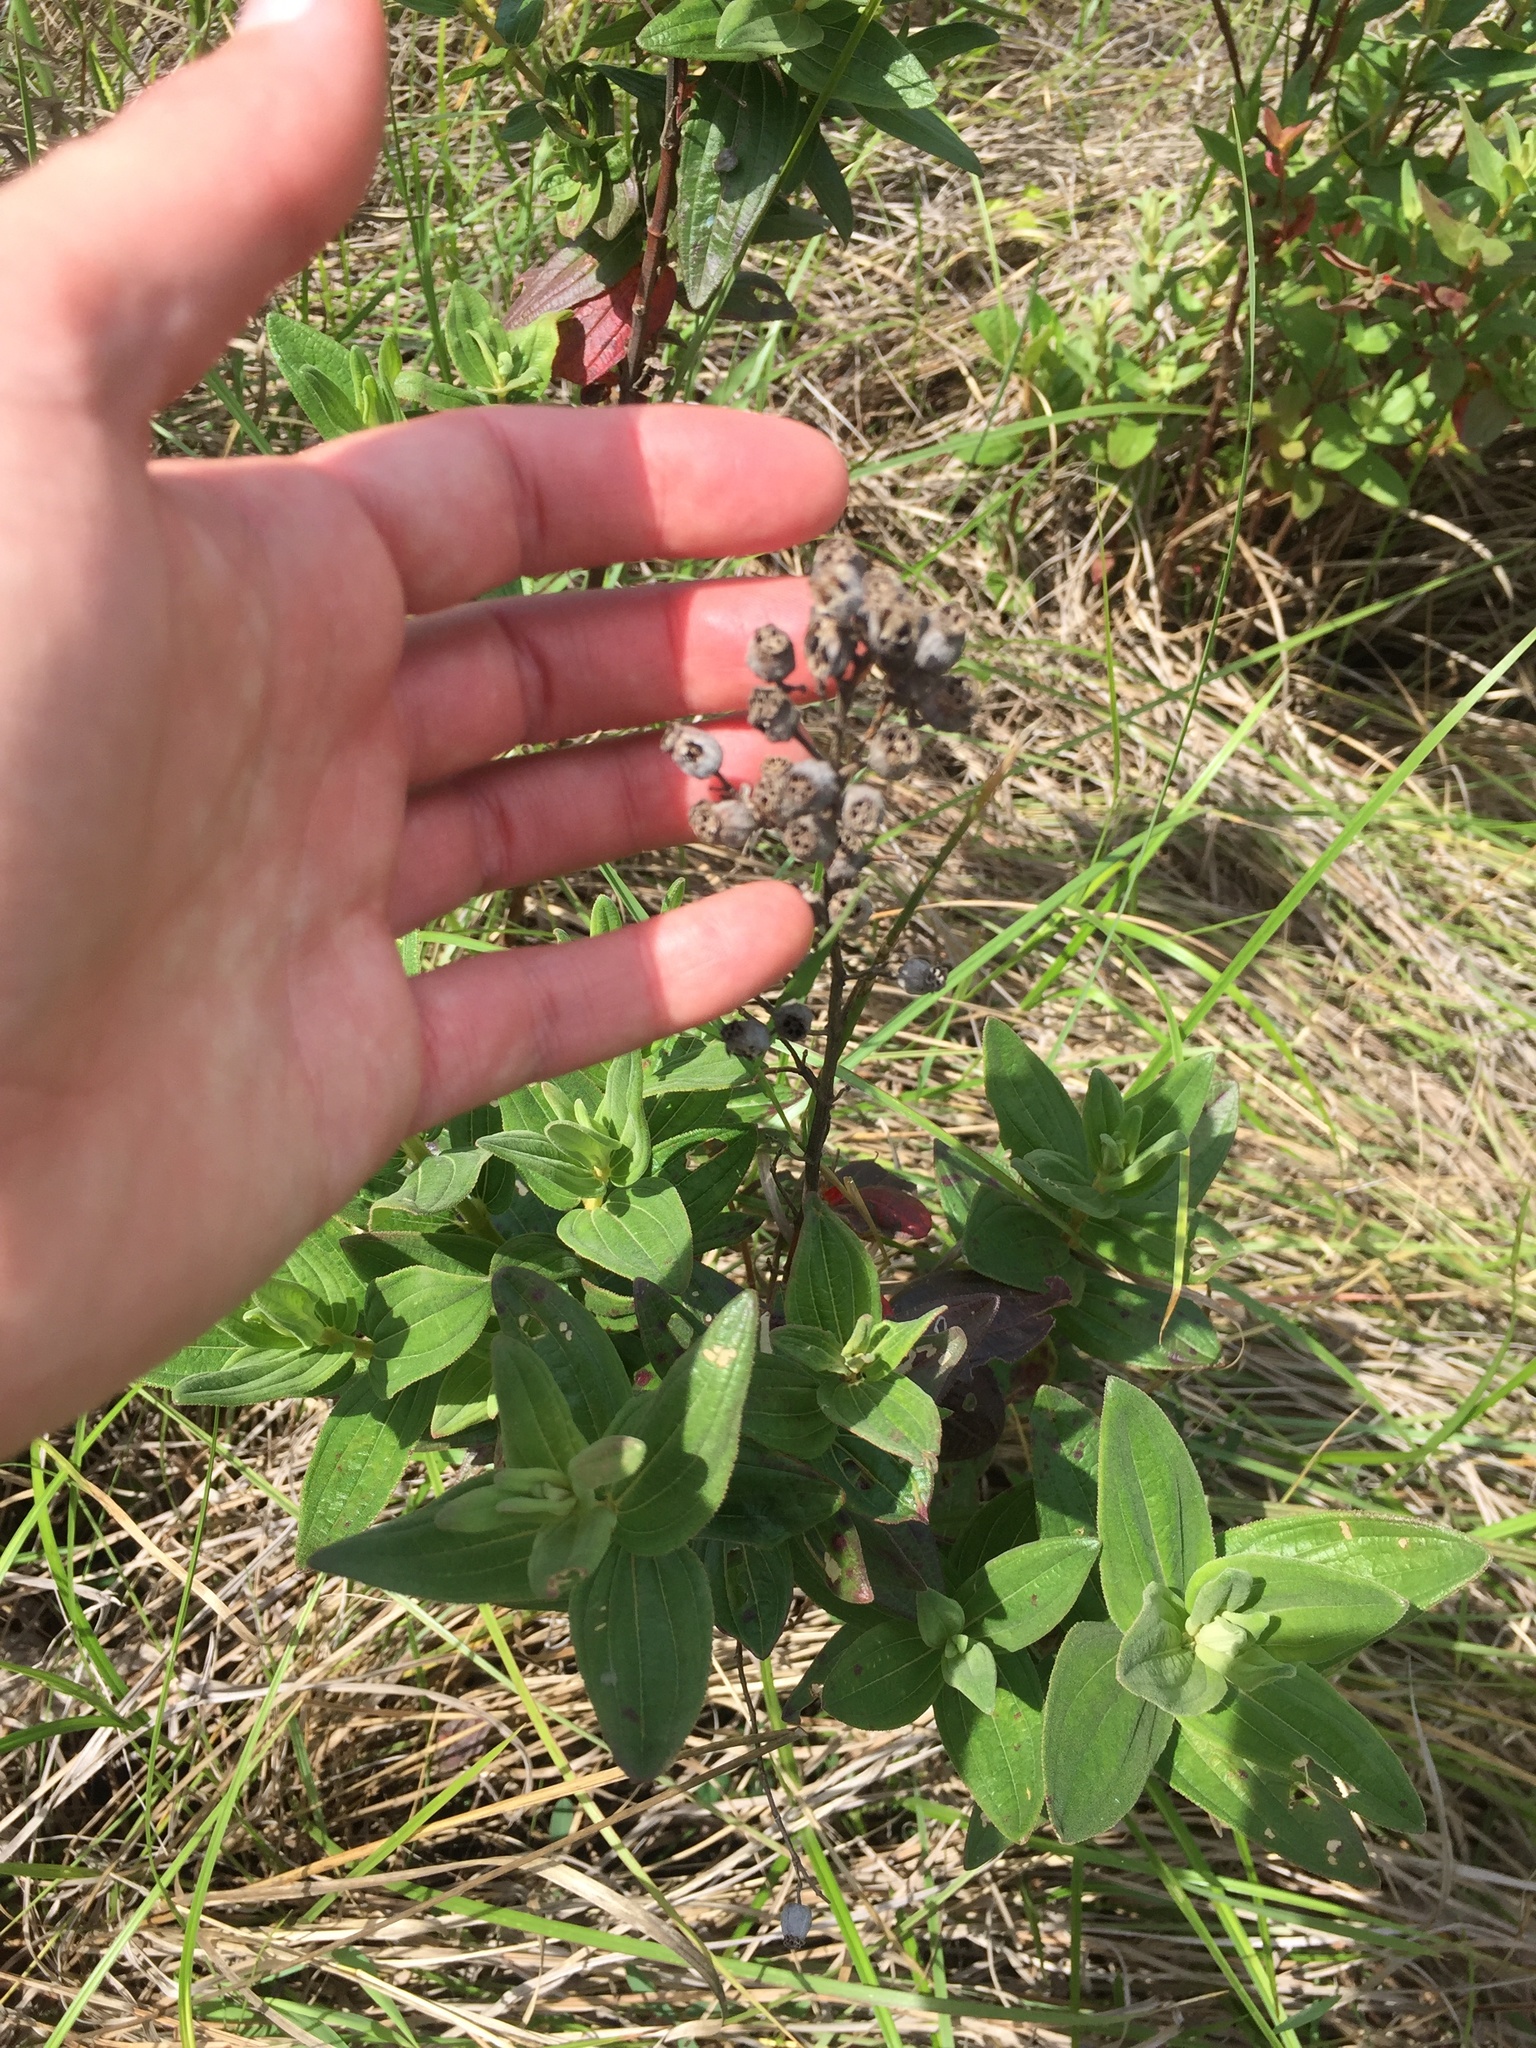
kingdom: Plantae
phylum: Tracheophyta
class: Magnoliopsida
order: Myrtales
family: Melastomataceae
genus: Argyrella
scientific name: Argyrella canescens
